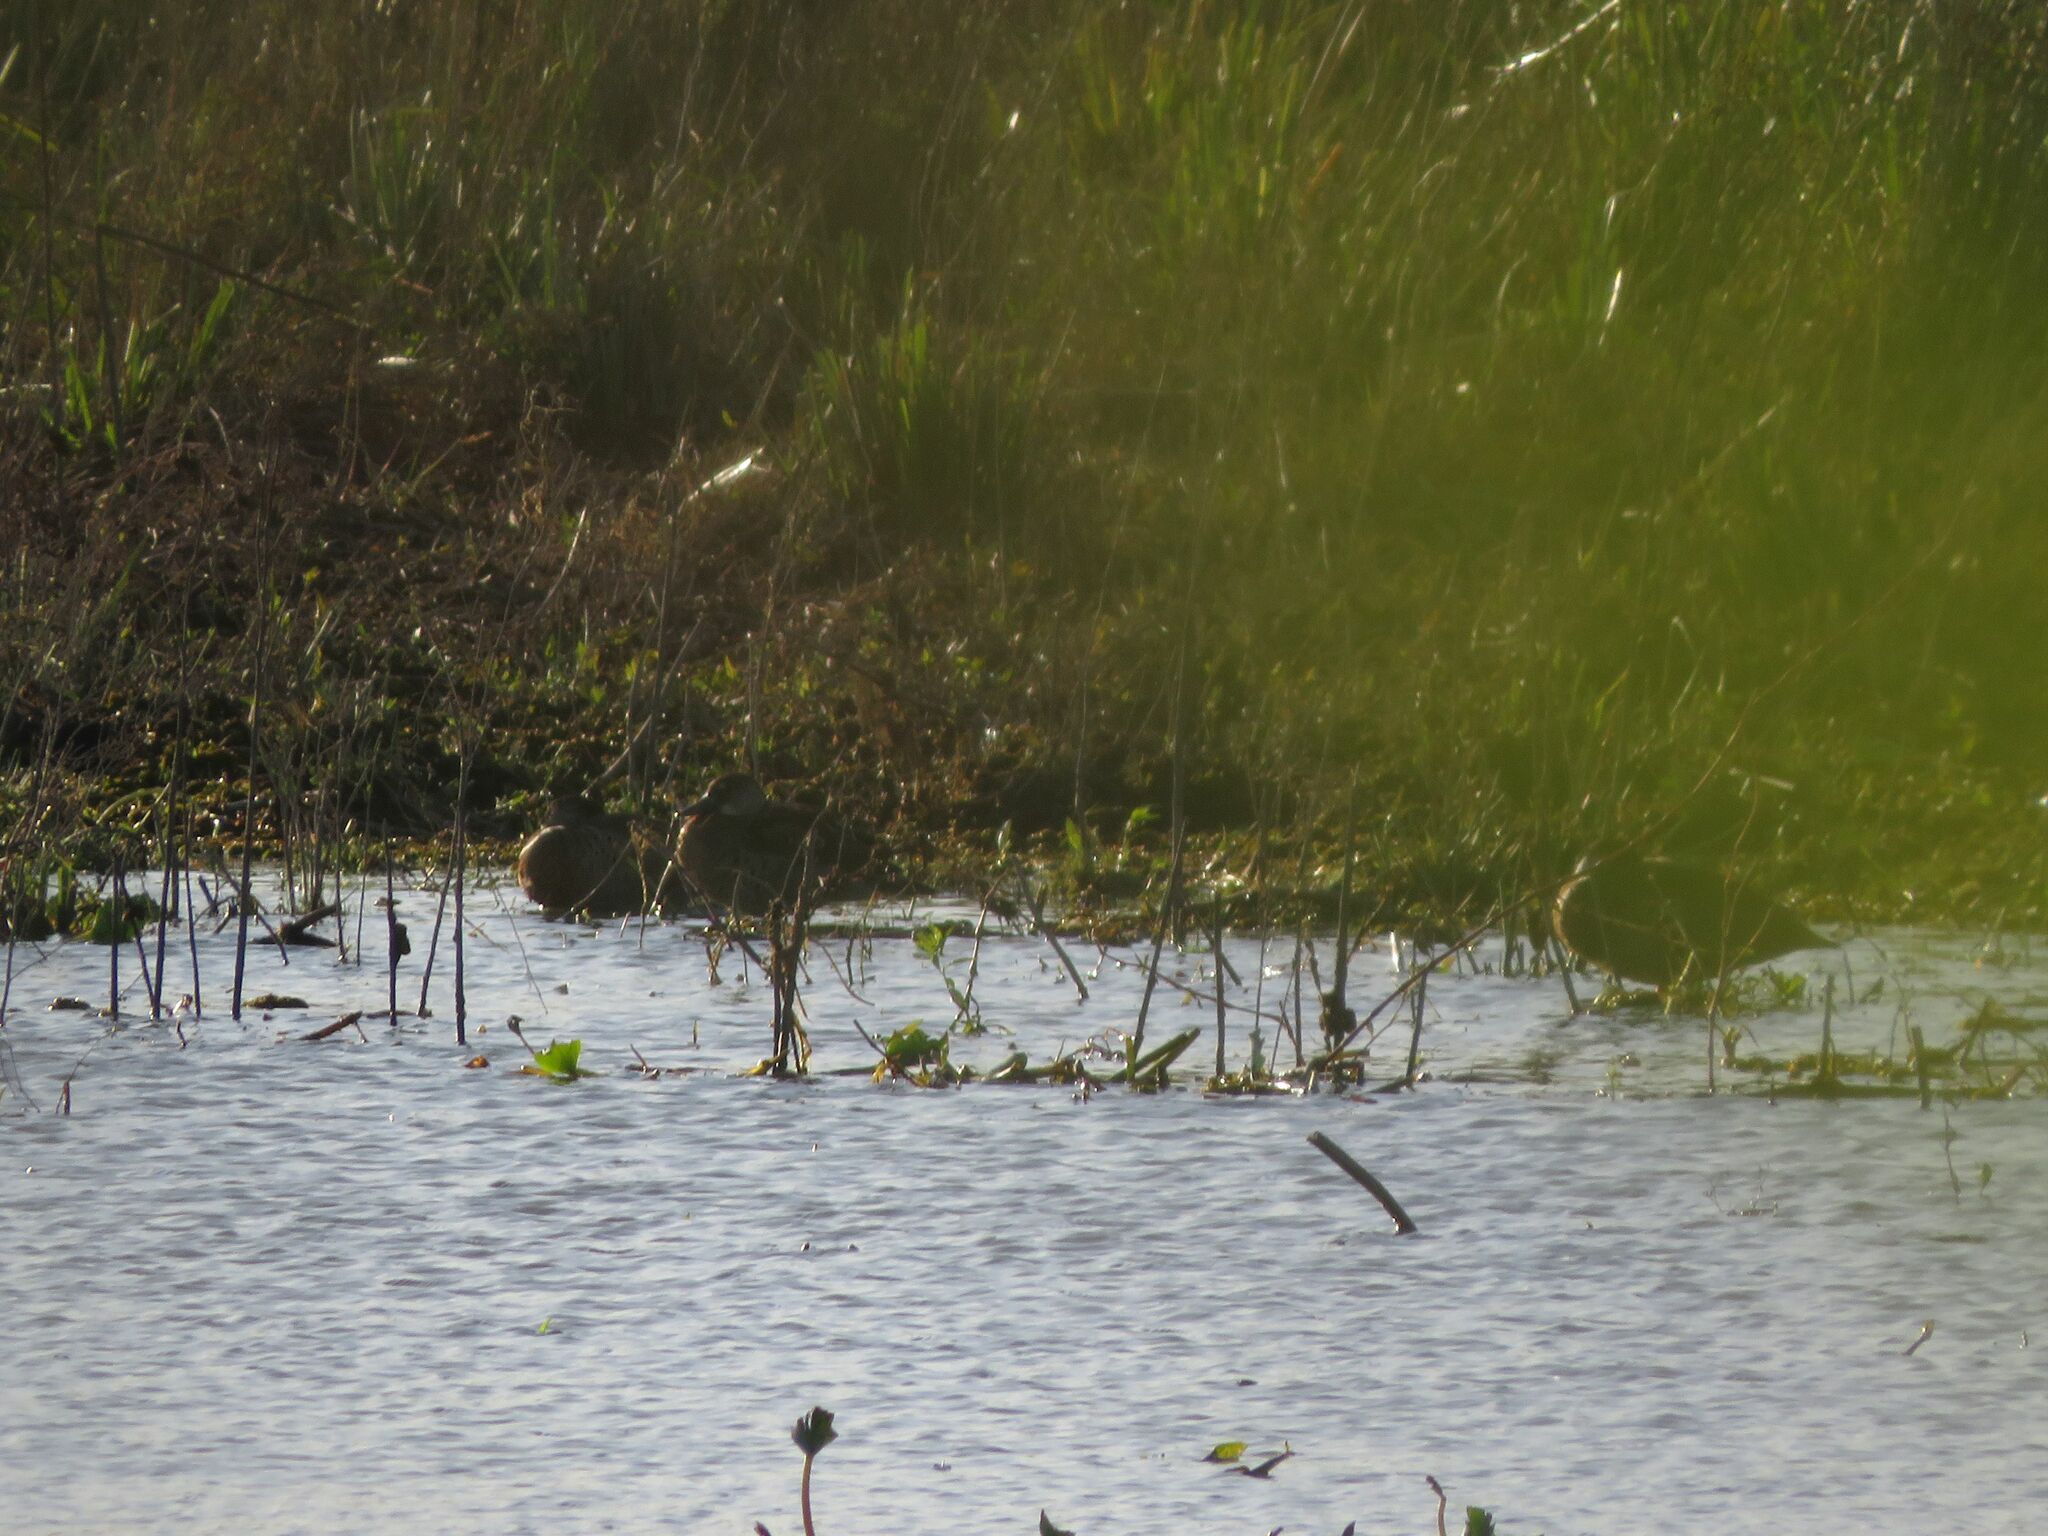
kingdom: Animalia
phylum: Chordata
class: Aves
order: Anseriformes
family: Anatidae
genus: Amazonetta
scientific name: Amazonetta brasiliensis
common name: Brazilian teal
